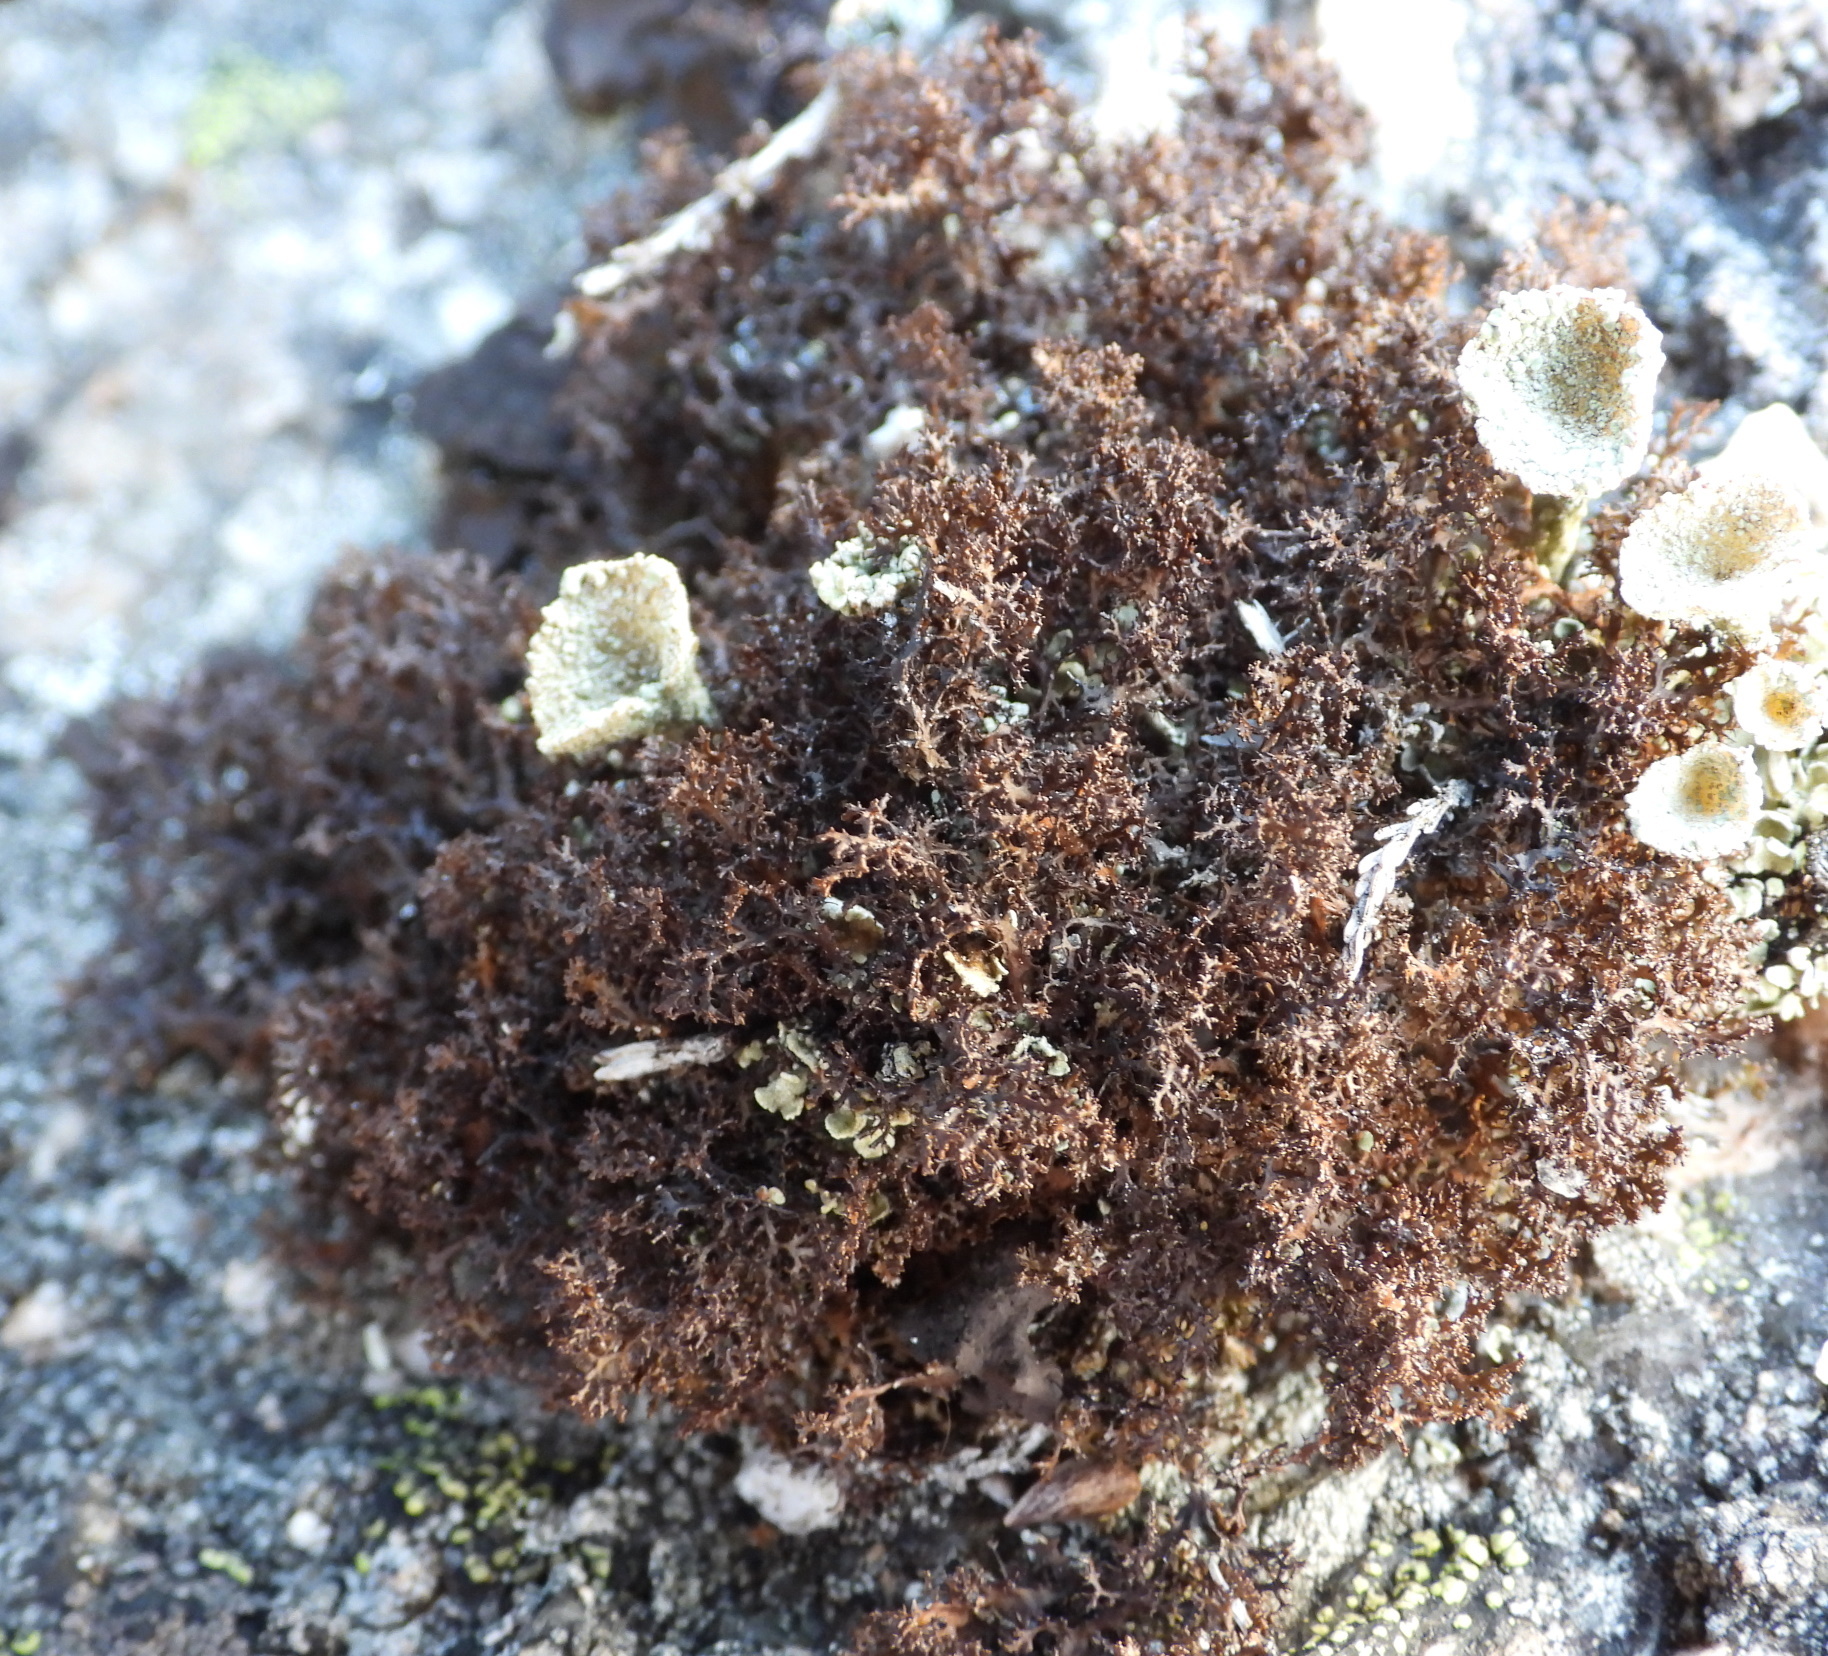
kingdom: Fungi
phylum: Ascomycota
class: Lecanoromycetes
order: Lecanorales
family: Parmeliaceae
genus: Cetraria
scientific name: Cetraria odontella
